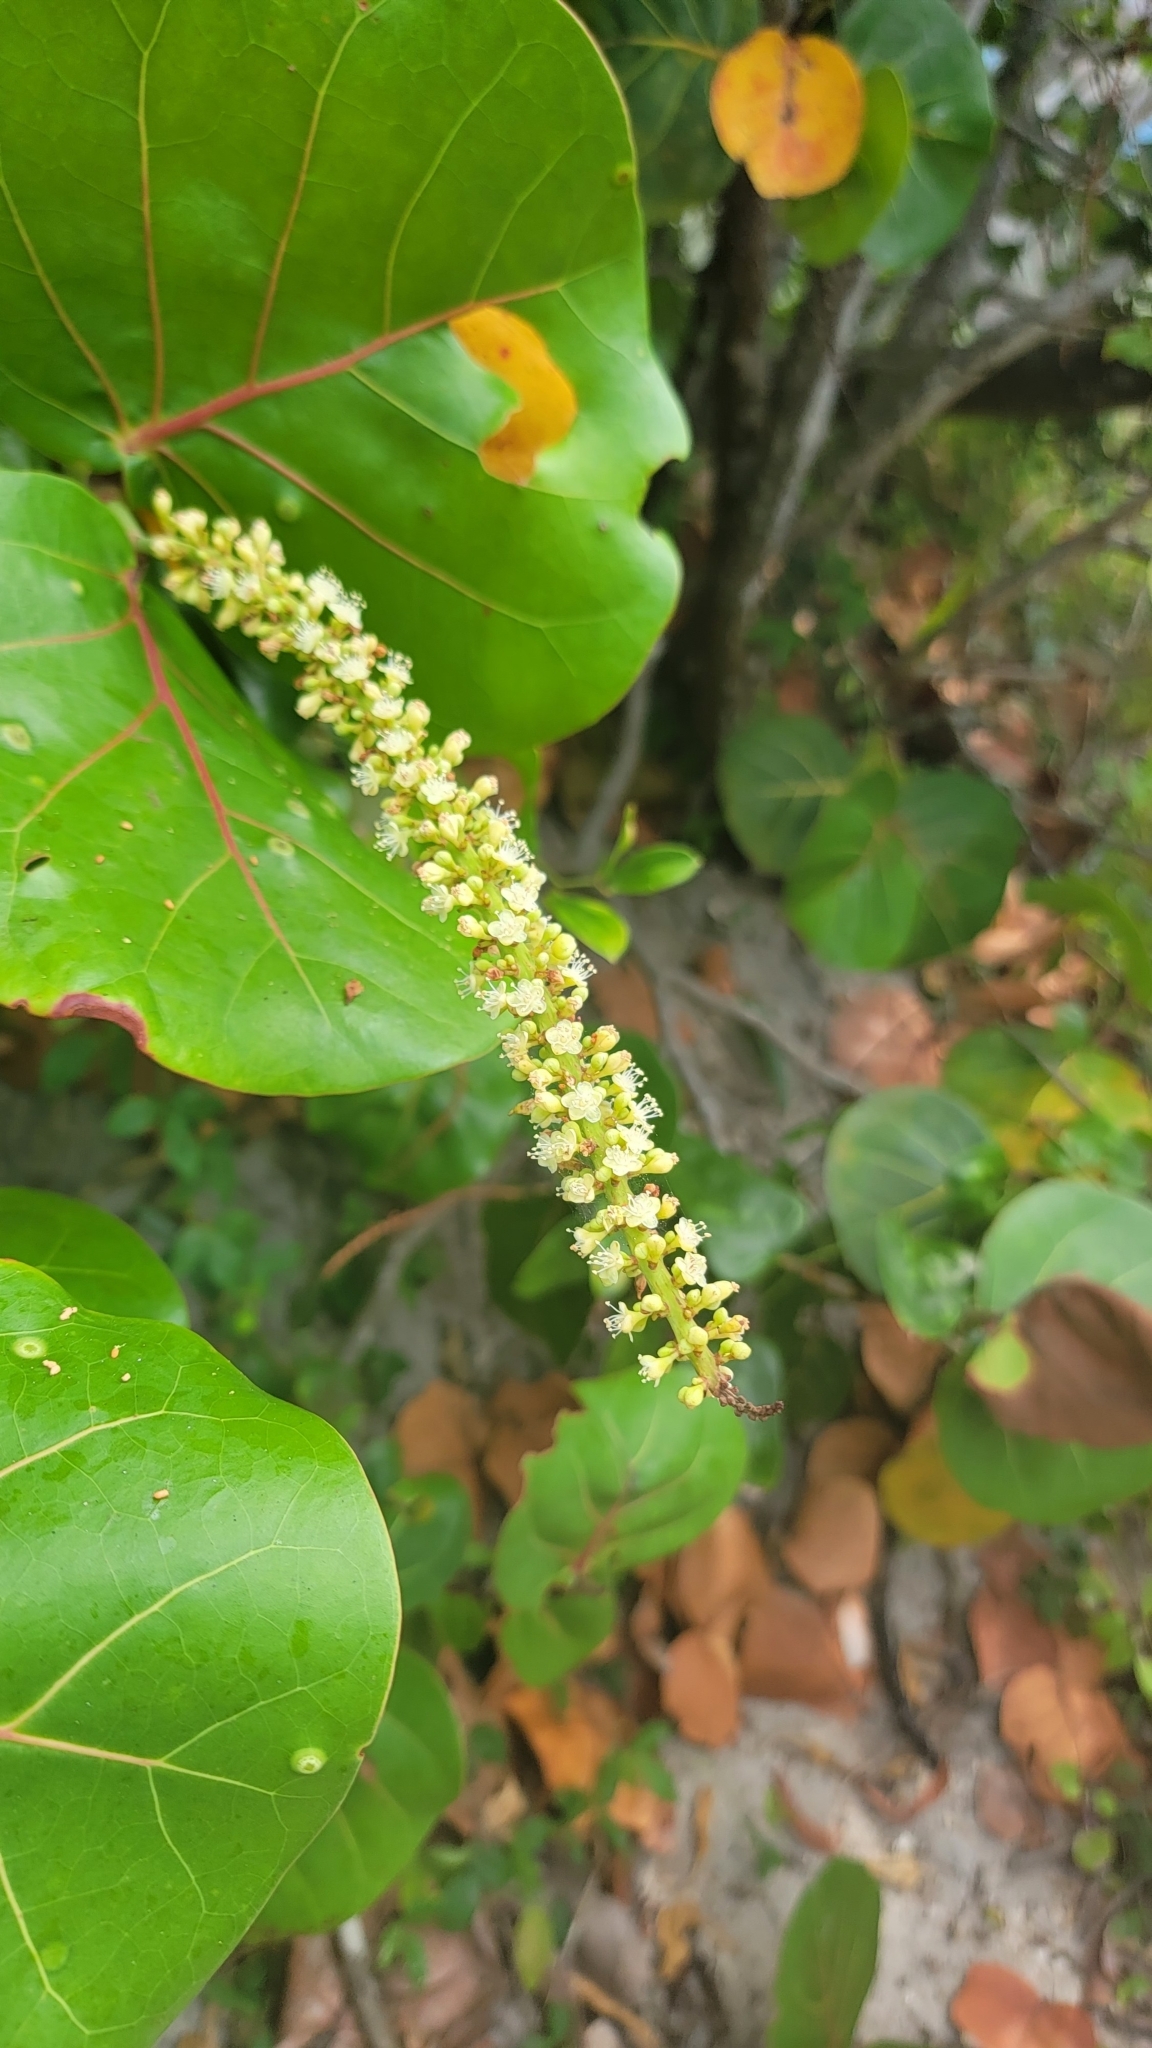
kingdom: Plantae
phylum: Tracheophyta
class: Magnoliopsida
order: Caryophyllales
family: Polygonaceae
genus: Coccoloba
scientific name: Coccoloba uvifera
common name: Seagrape
